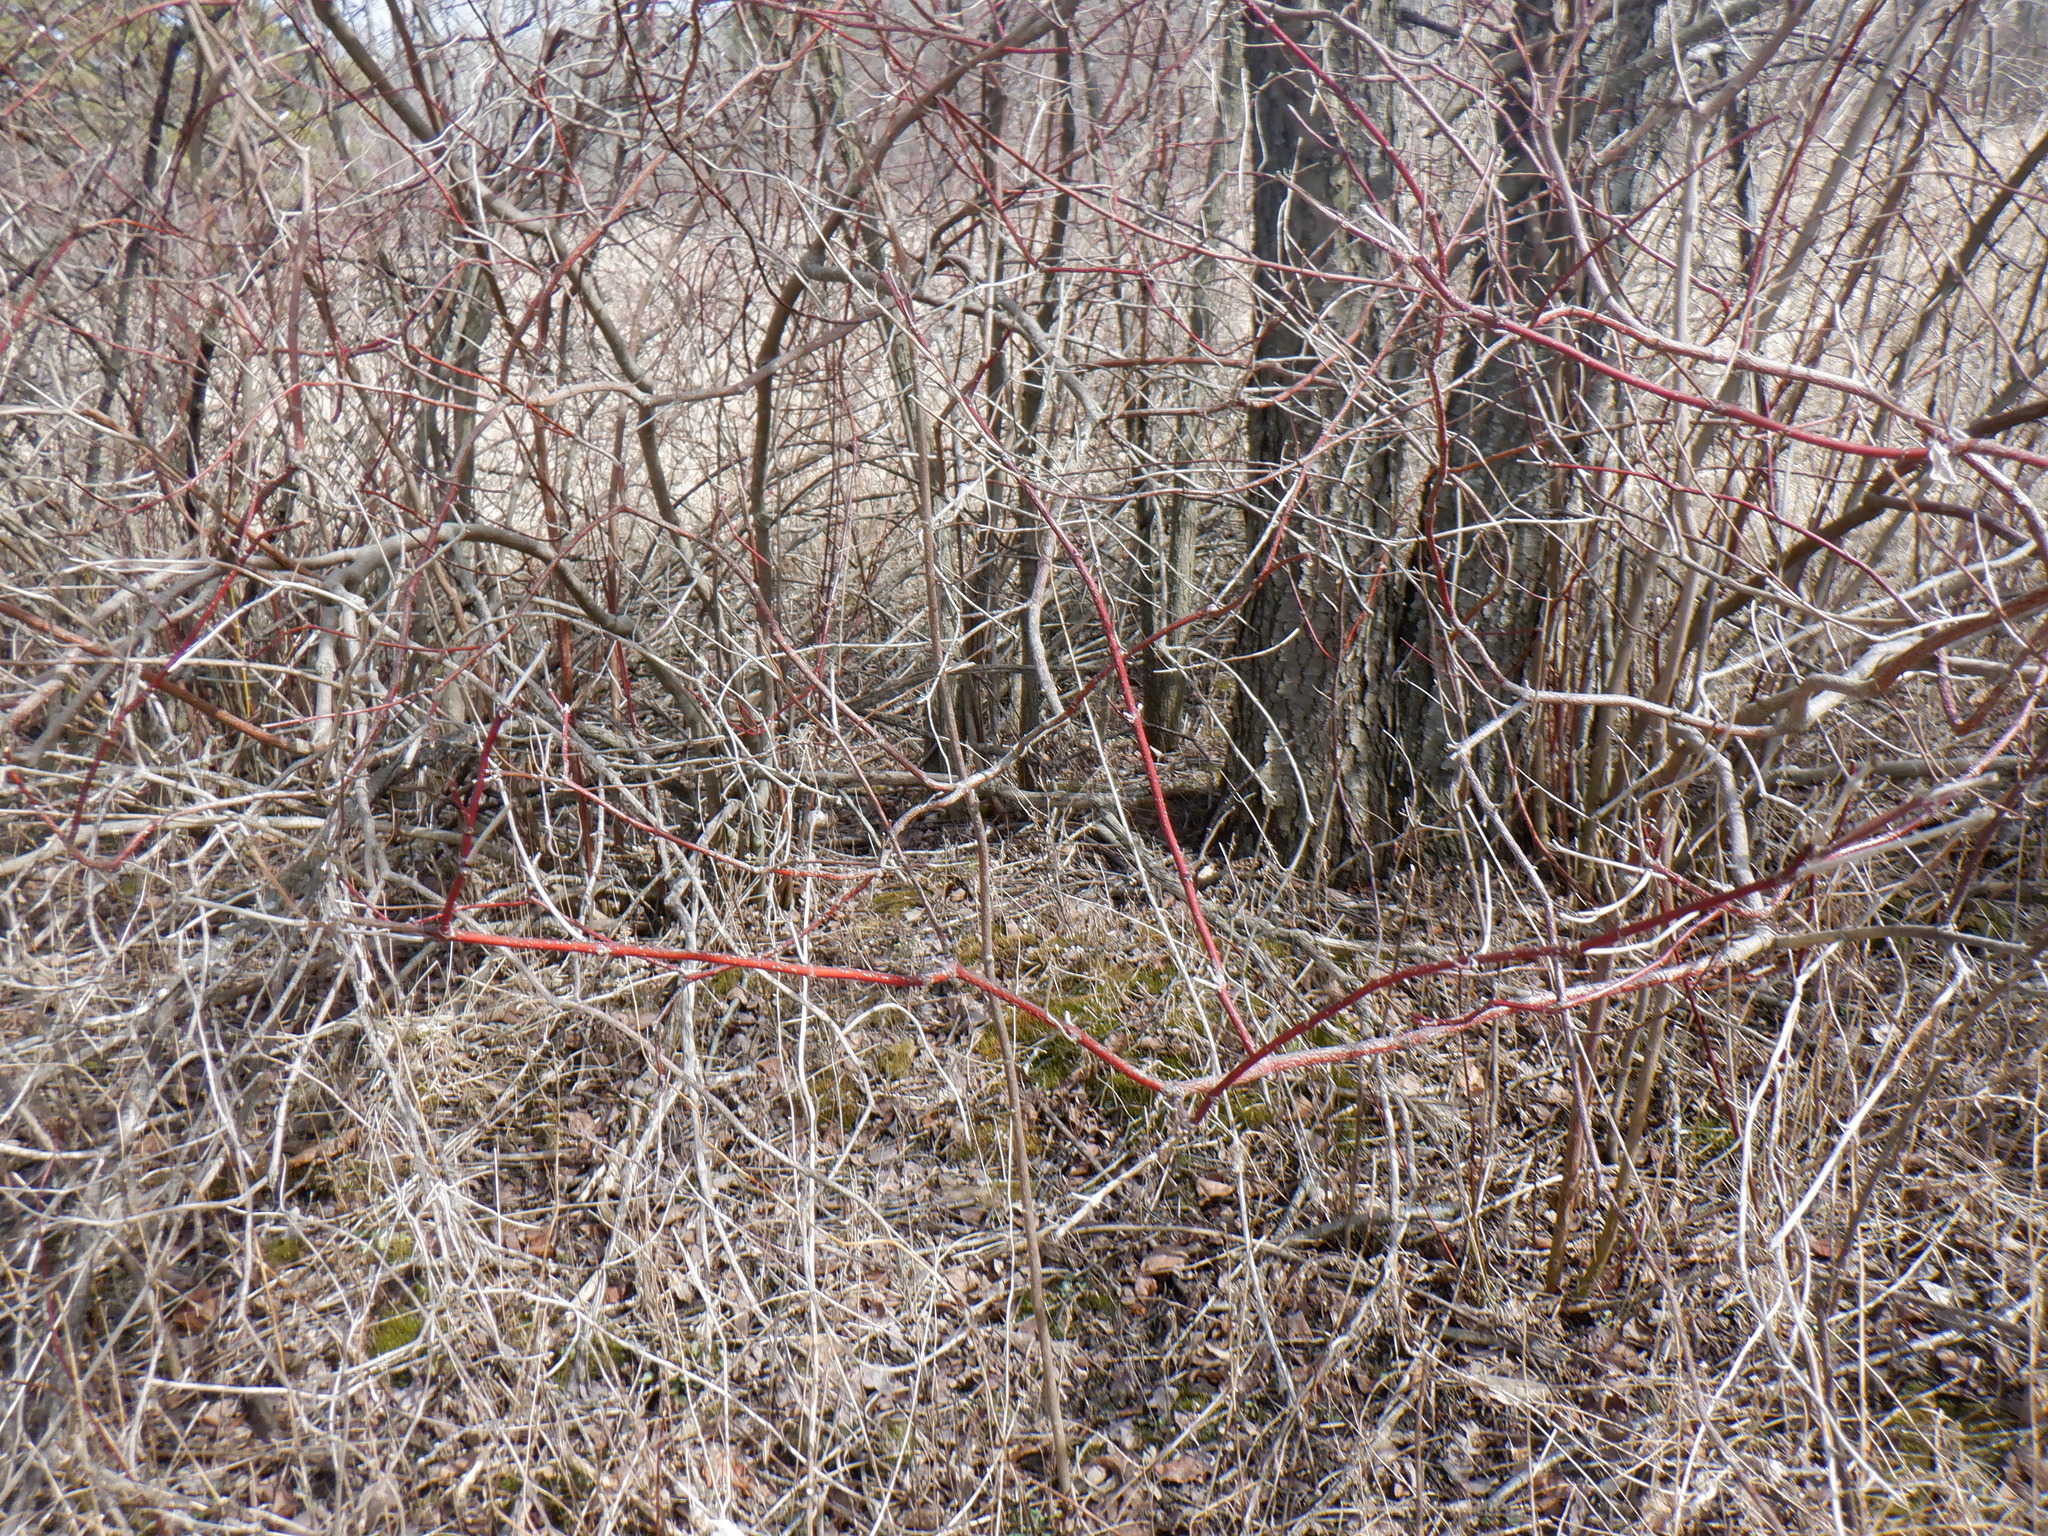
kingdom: Plantae
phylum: Tracheophyta
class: Magnoliopsida
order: Cornales
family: Cornaceae
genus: Cornus
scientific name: Cornus sericea
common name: Red-osier dogwood
